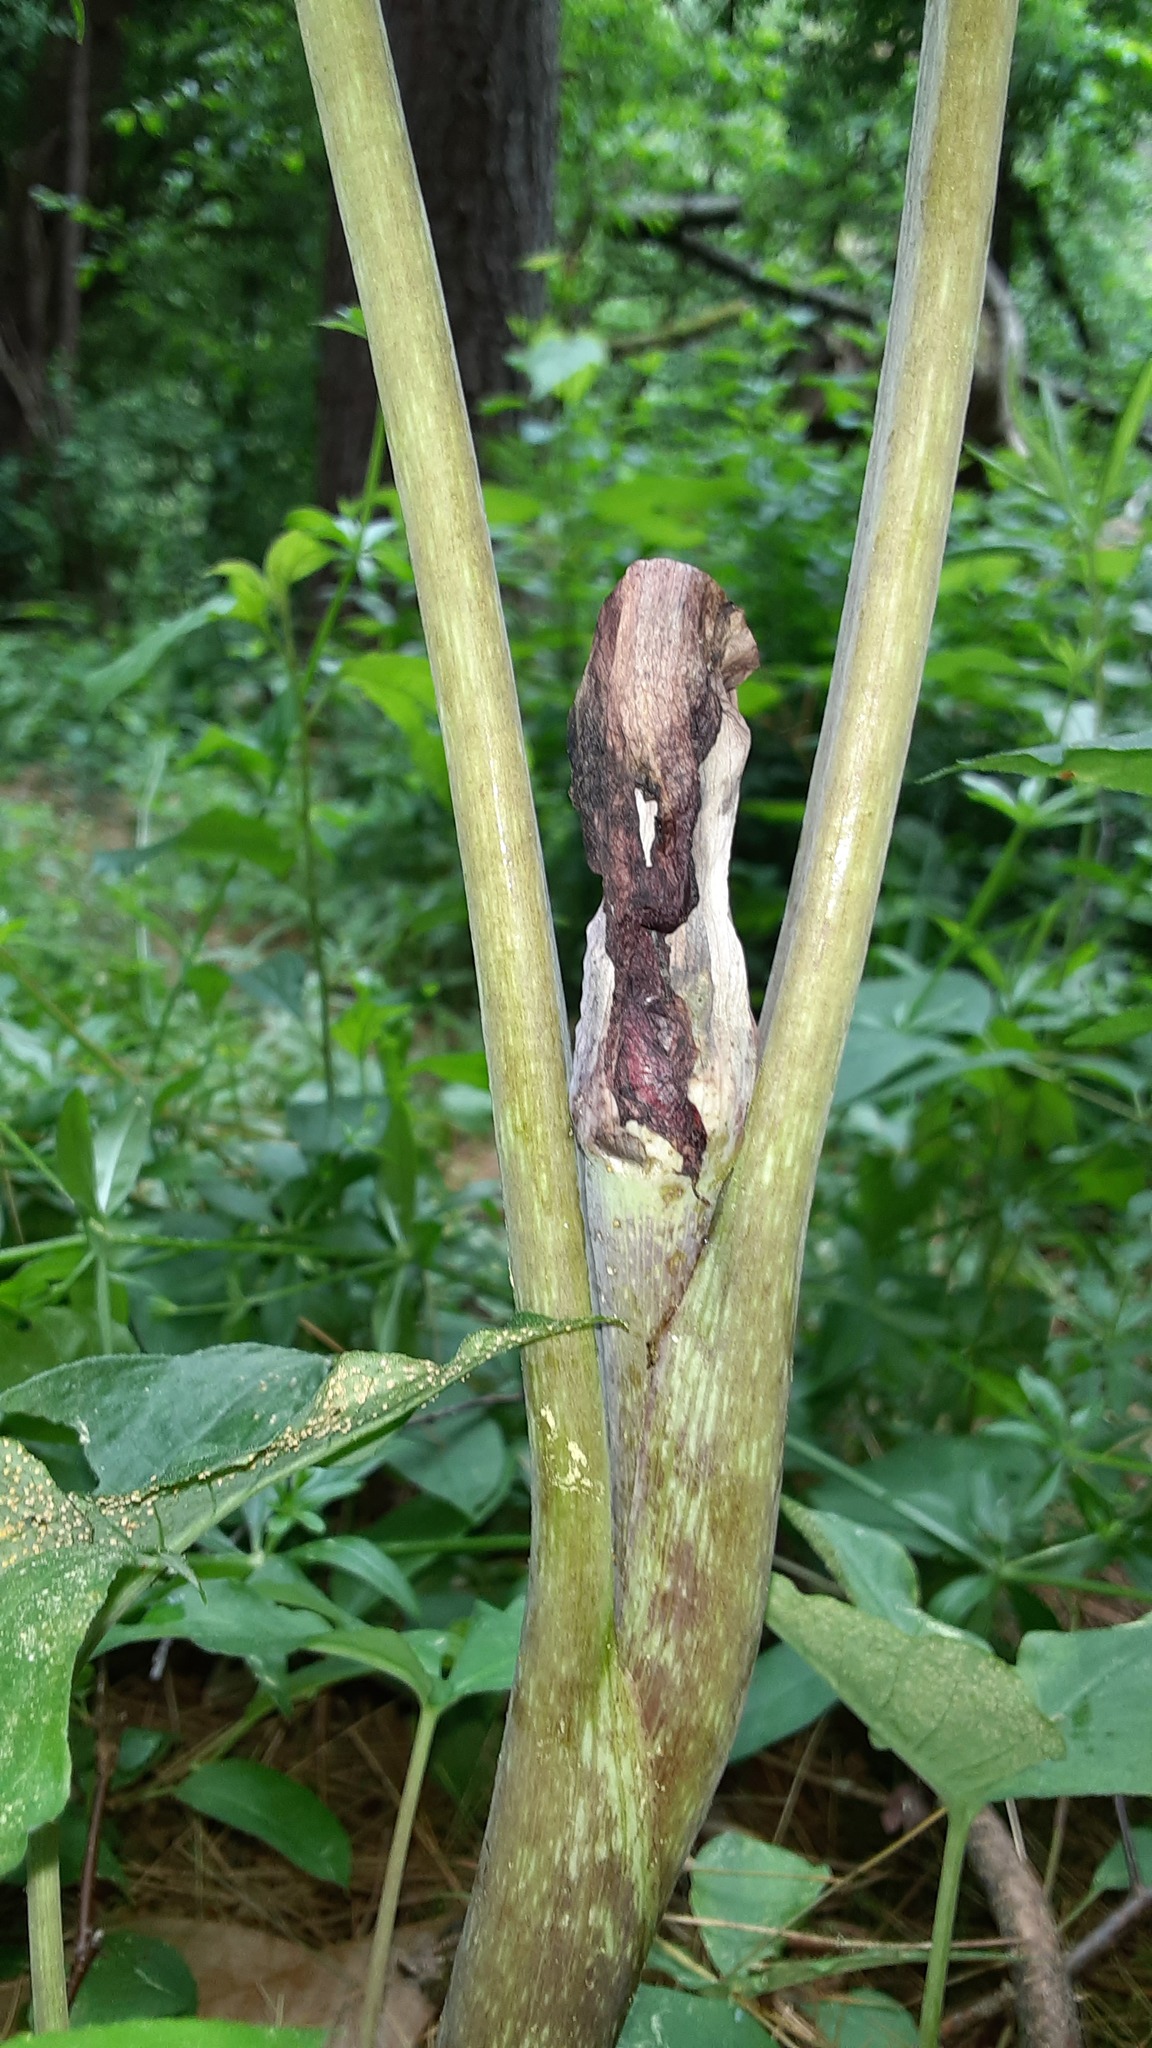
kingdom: Plantae
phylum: Tracheophyta
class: Liliopsida
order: Alismatales
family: Araceae
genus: Arisaema
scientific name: Arisaema triphyllum
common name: Jack-in-the-pulpit
